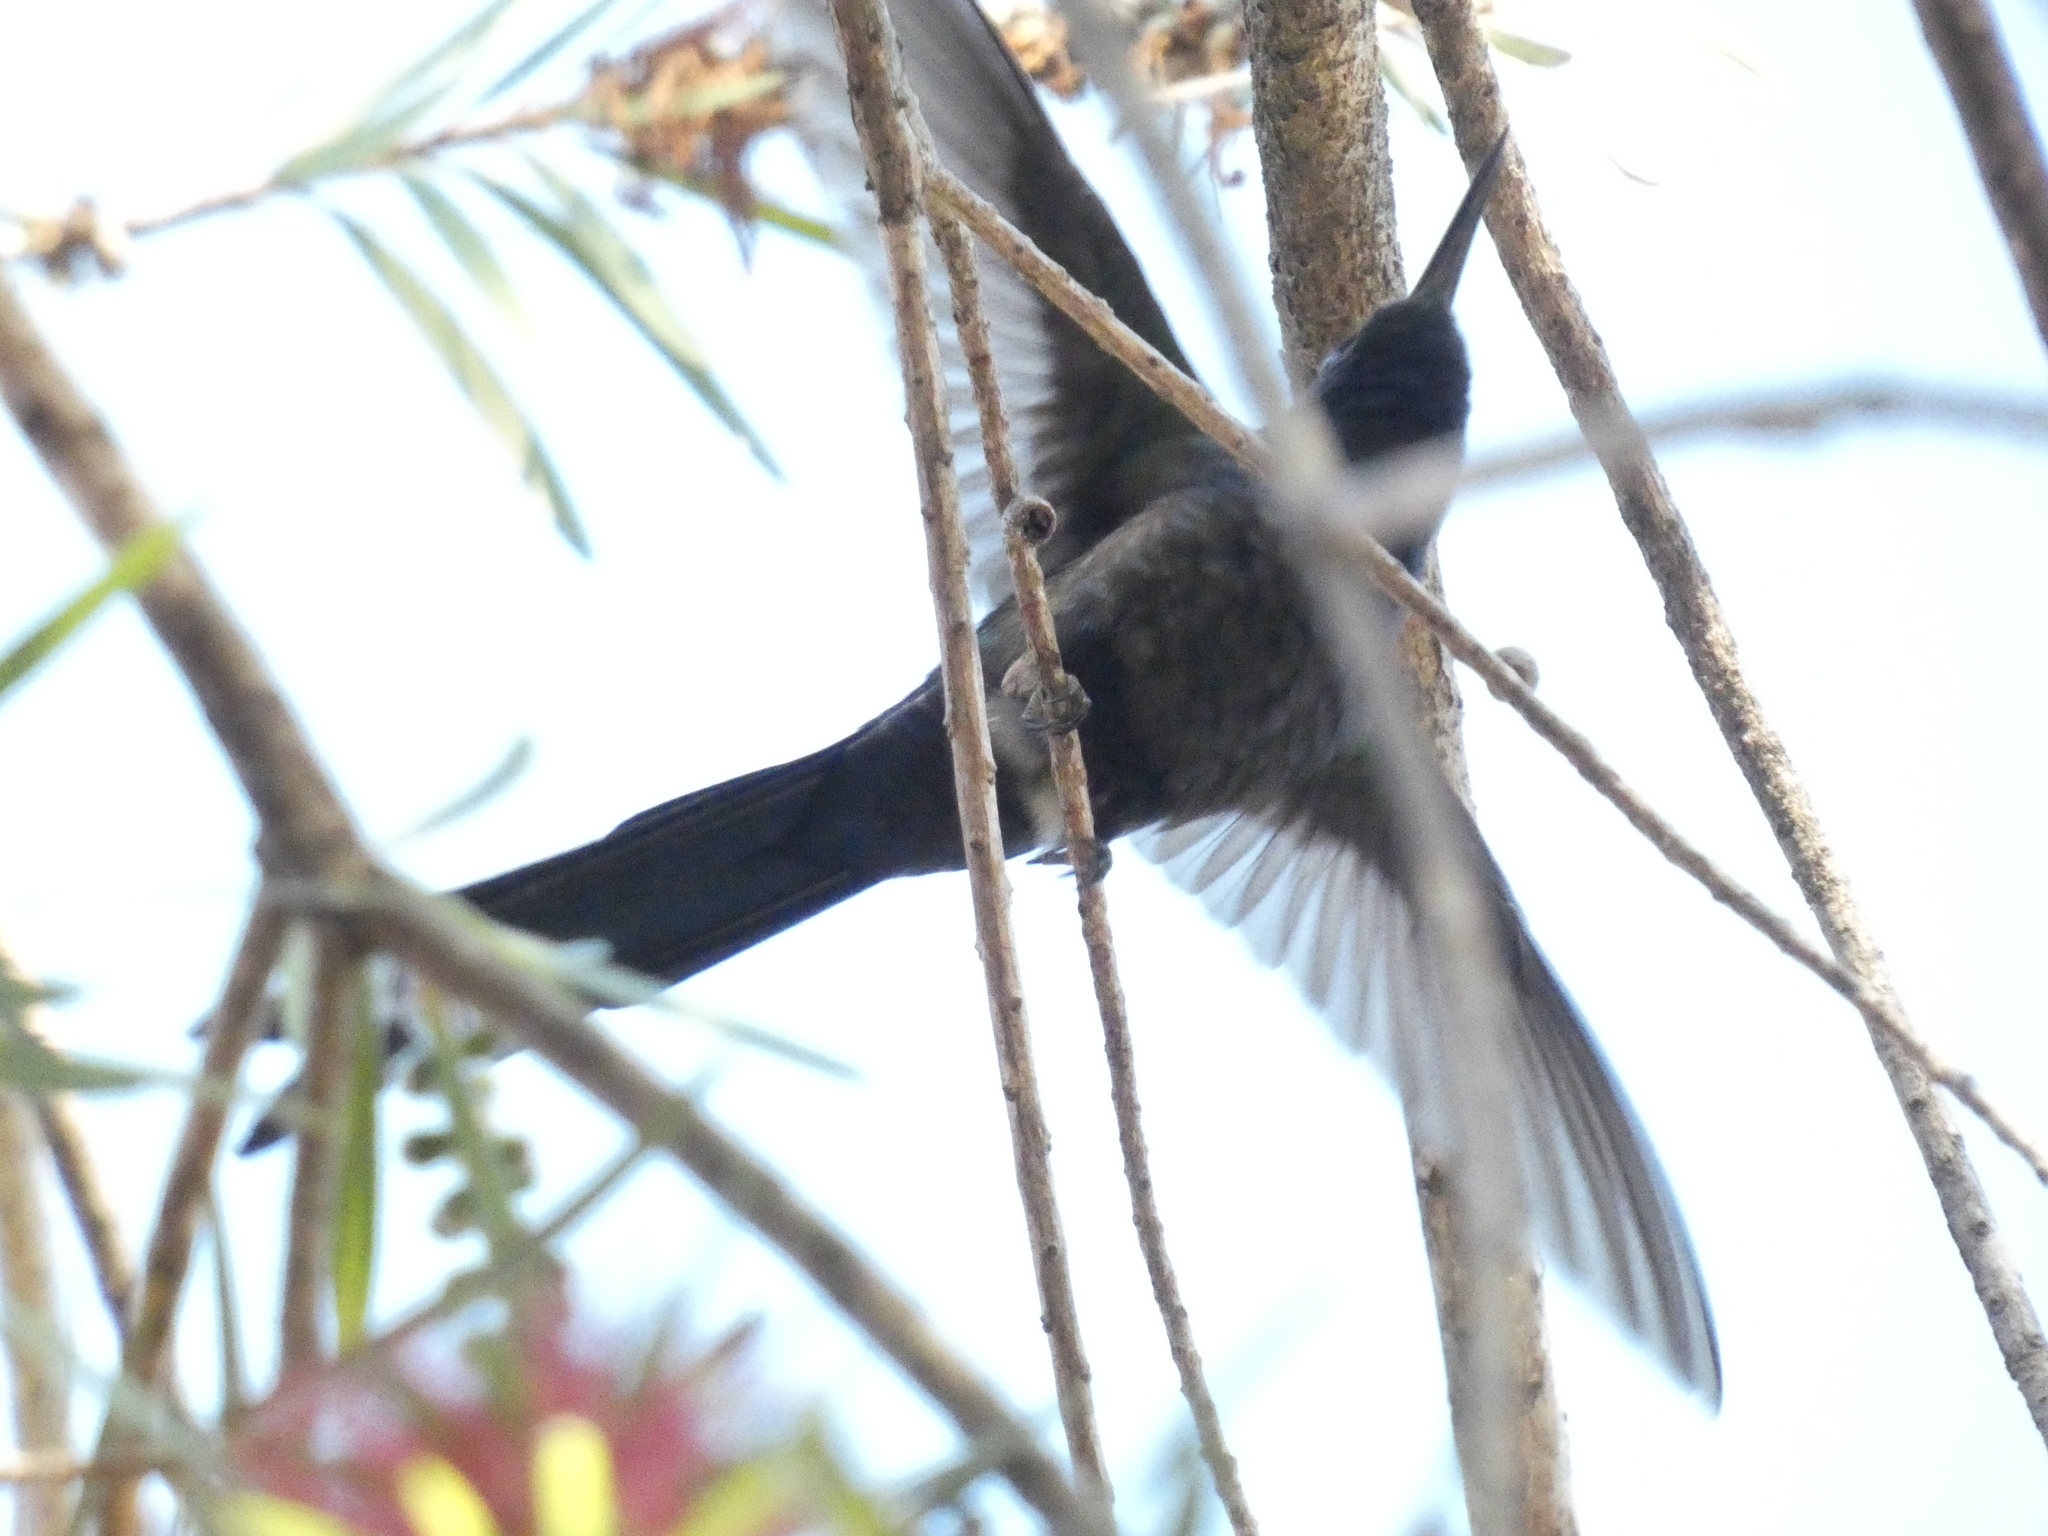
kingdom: Animalia
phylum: Chordata
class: Aves
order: Apodiformes
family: Trochilidae
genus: Eupetomena
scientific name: Eupetomena macroura
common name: Swallow-tailed hummingbird
